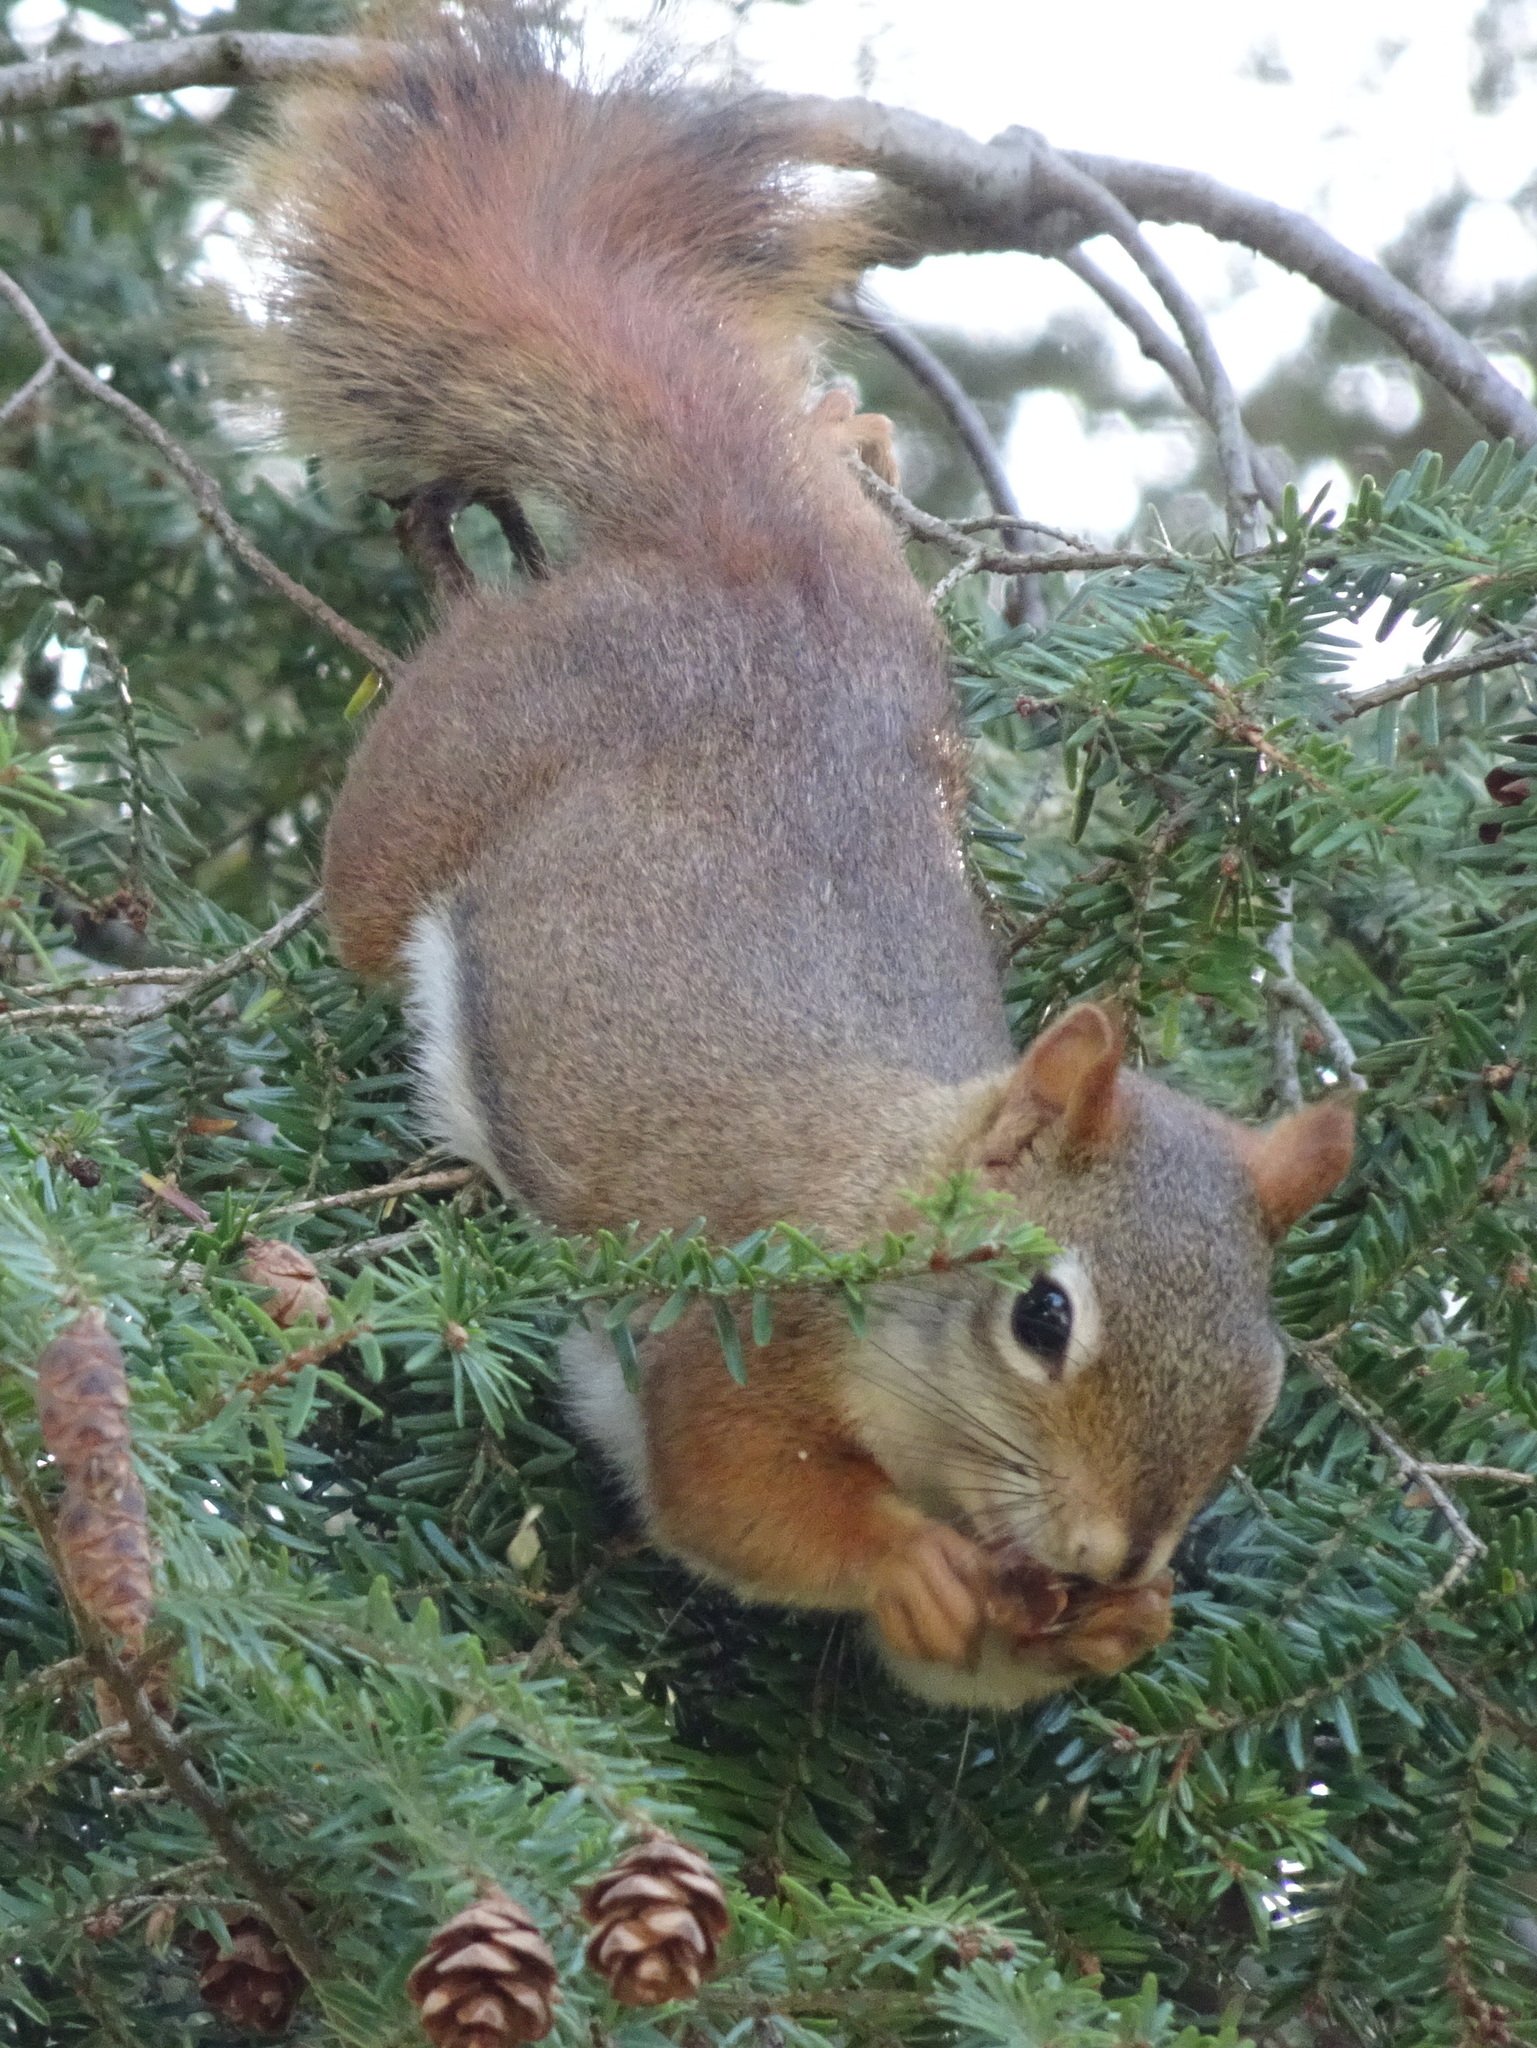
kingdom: Animalia
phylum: Chordata
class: Mammalia
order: Rodentia
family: Sciuridae
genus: Tamiasciurus
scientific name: Tamiasciurus hudsonicus
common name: Red squirrel
